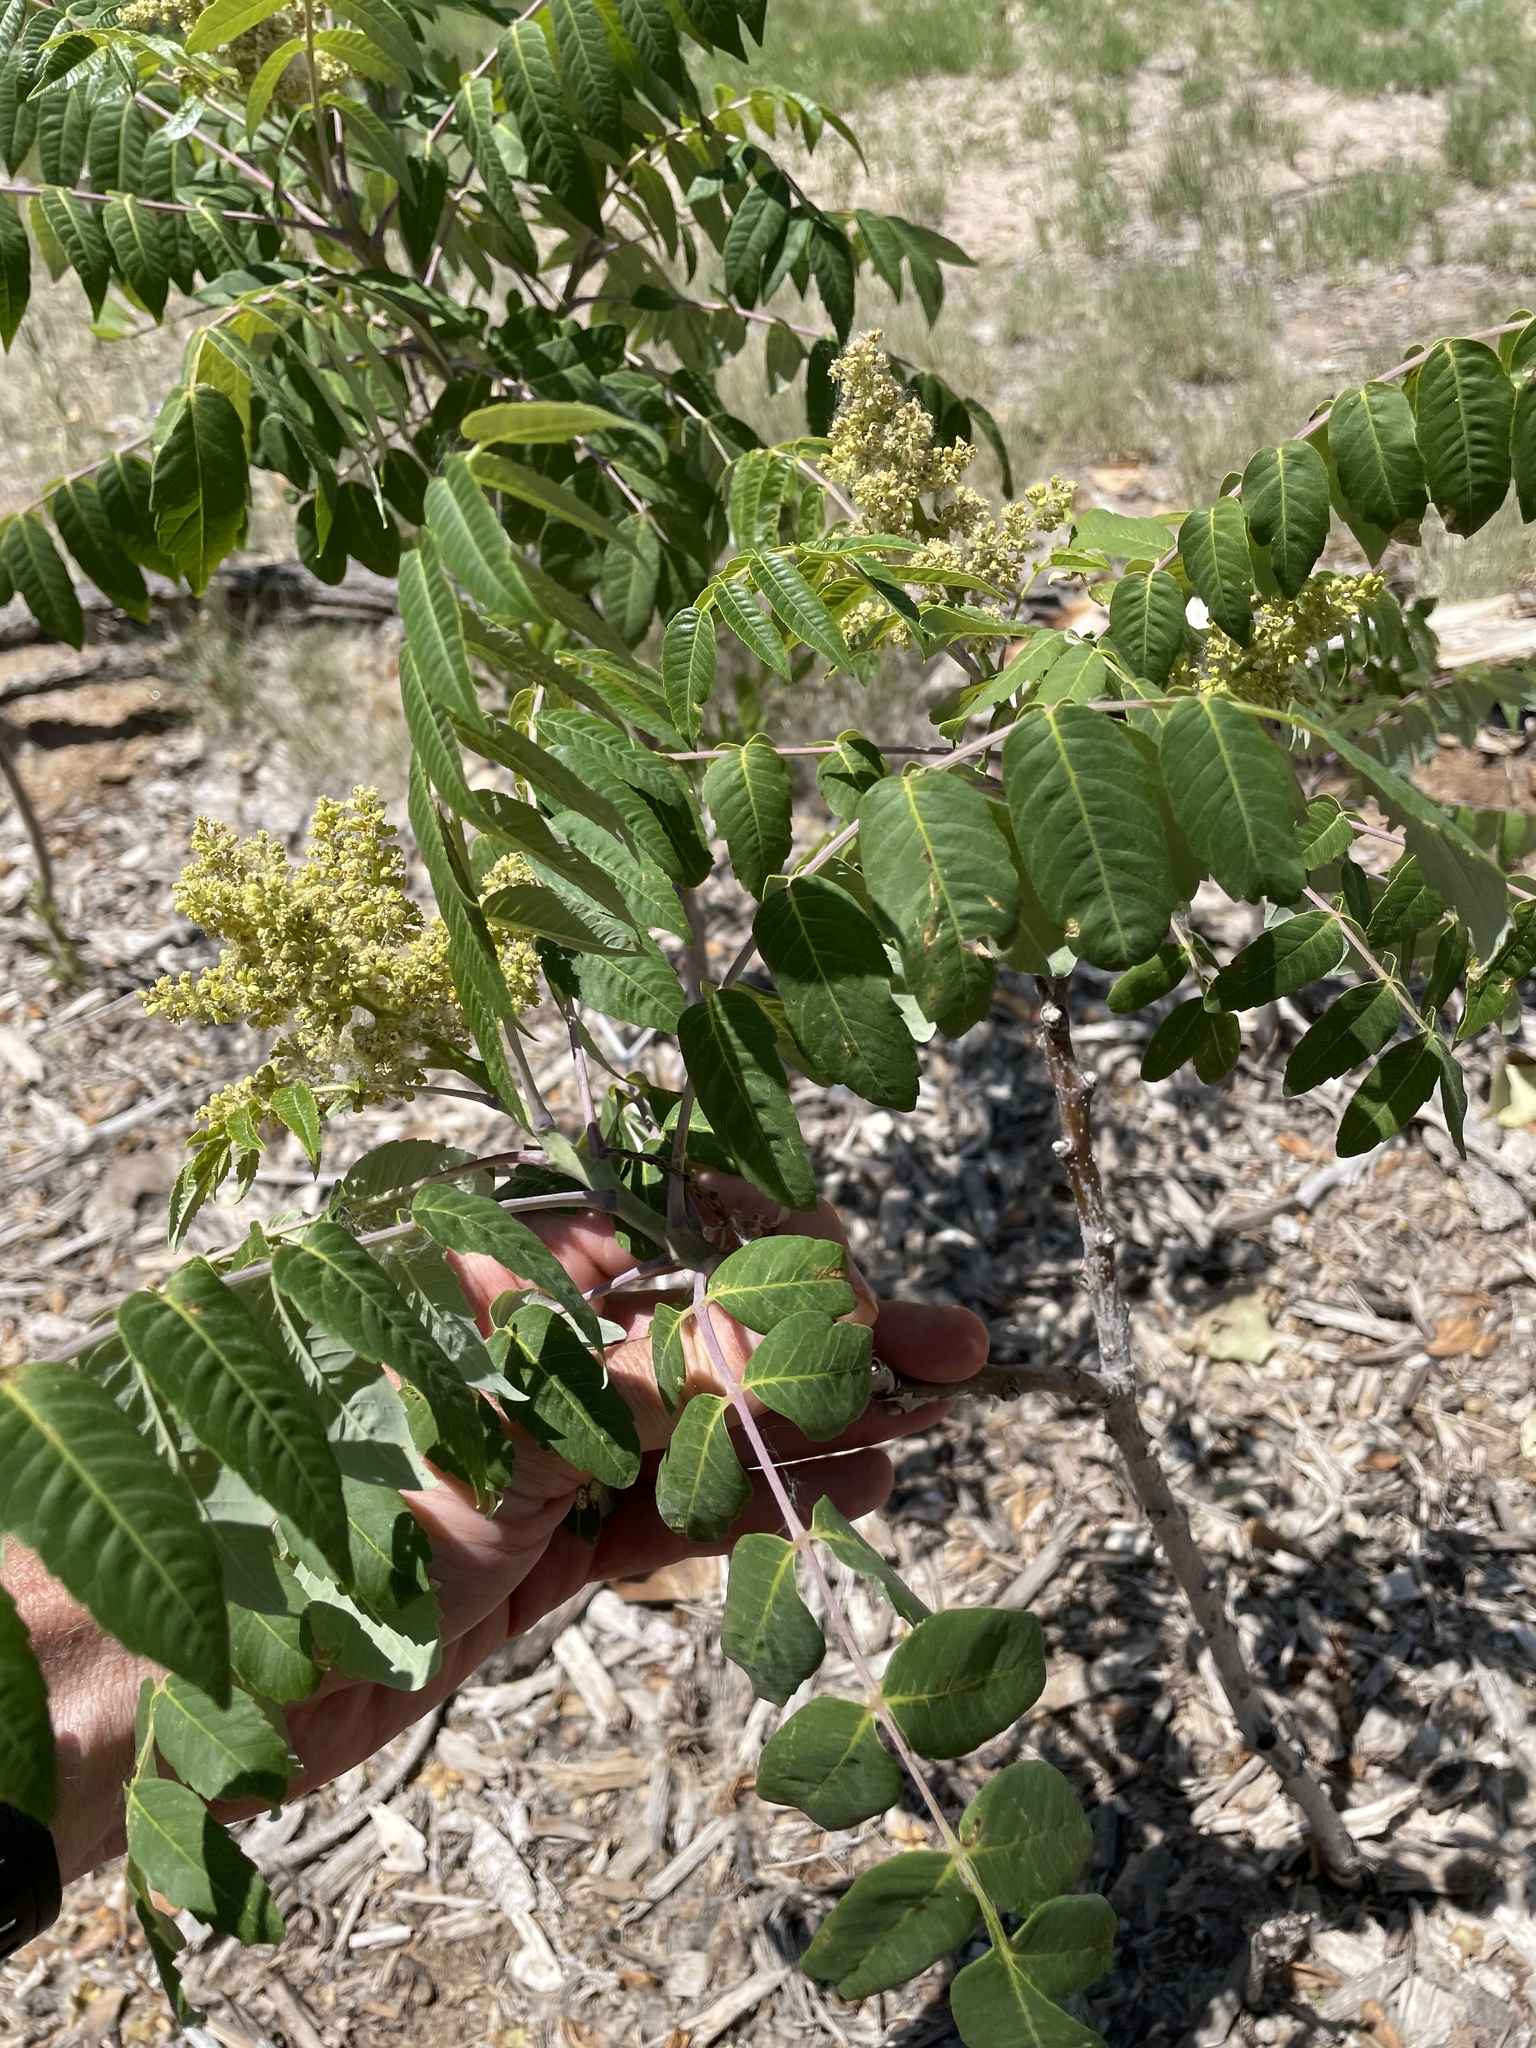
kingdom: Plantae
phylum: Tracheophyta
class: Magnoliopsida
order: Sapindales
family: Anacardiaceae
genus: Rhus
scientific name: Rhus glabra
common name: Scarlet sumac
